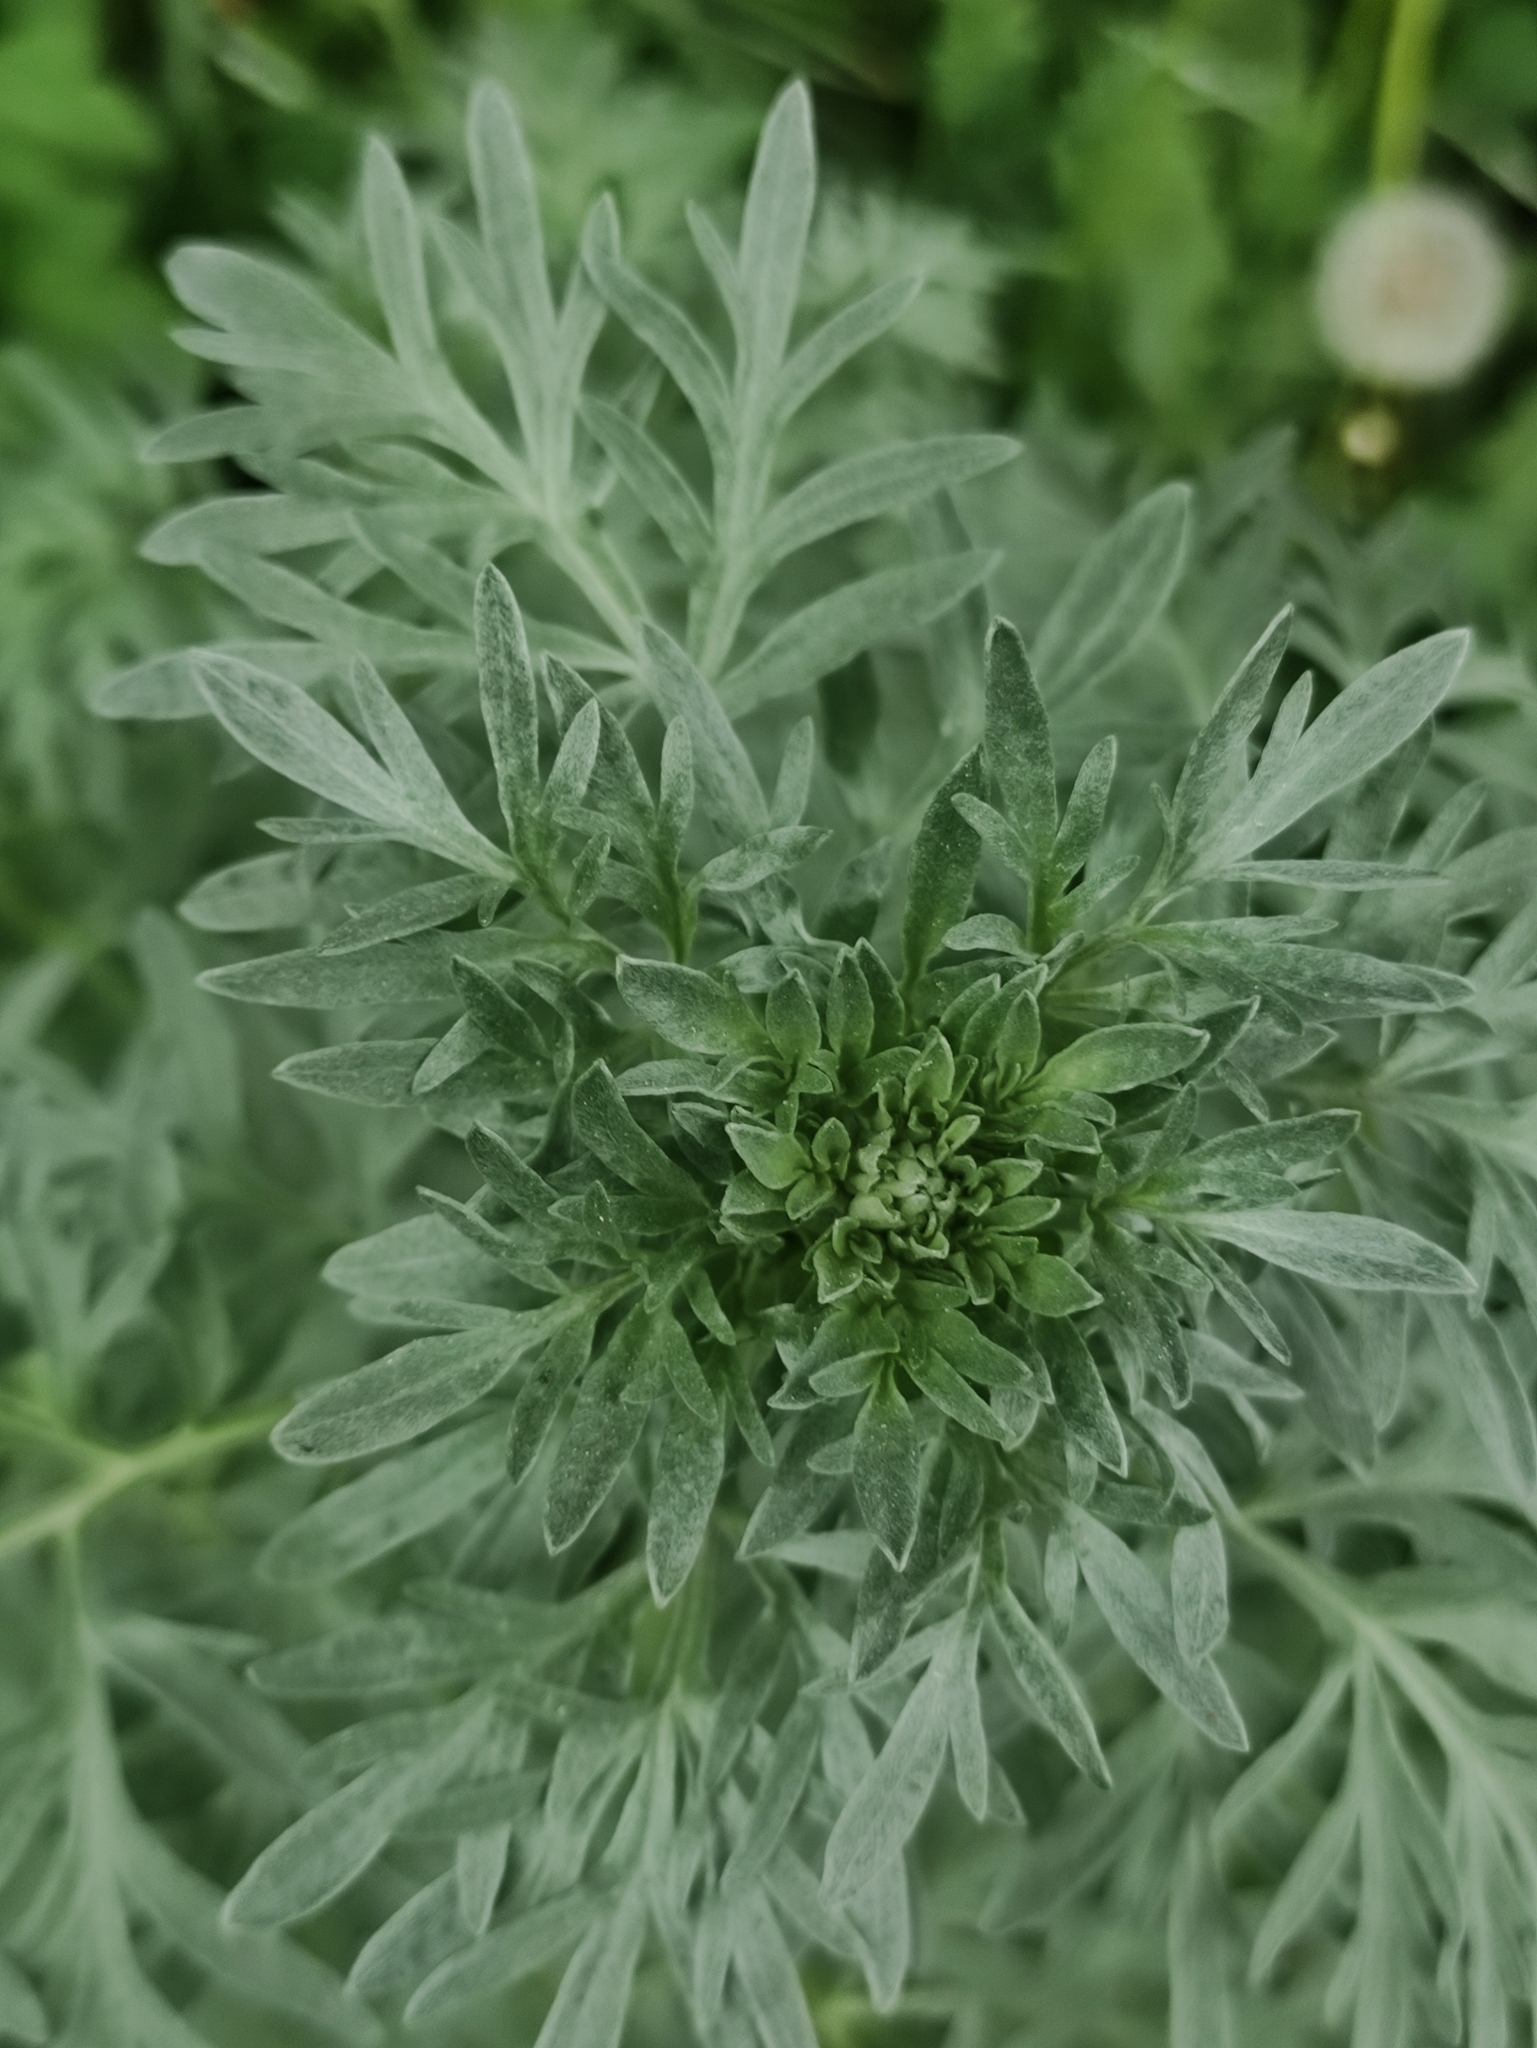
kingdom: Plantae
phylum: Tracheophyta
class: Magnoliopsida
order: Asterales
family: Asteraceae
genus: Artemisia
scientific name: Artemisia absinthium
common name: Wormwood
